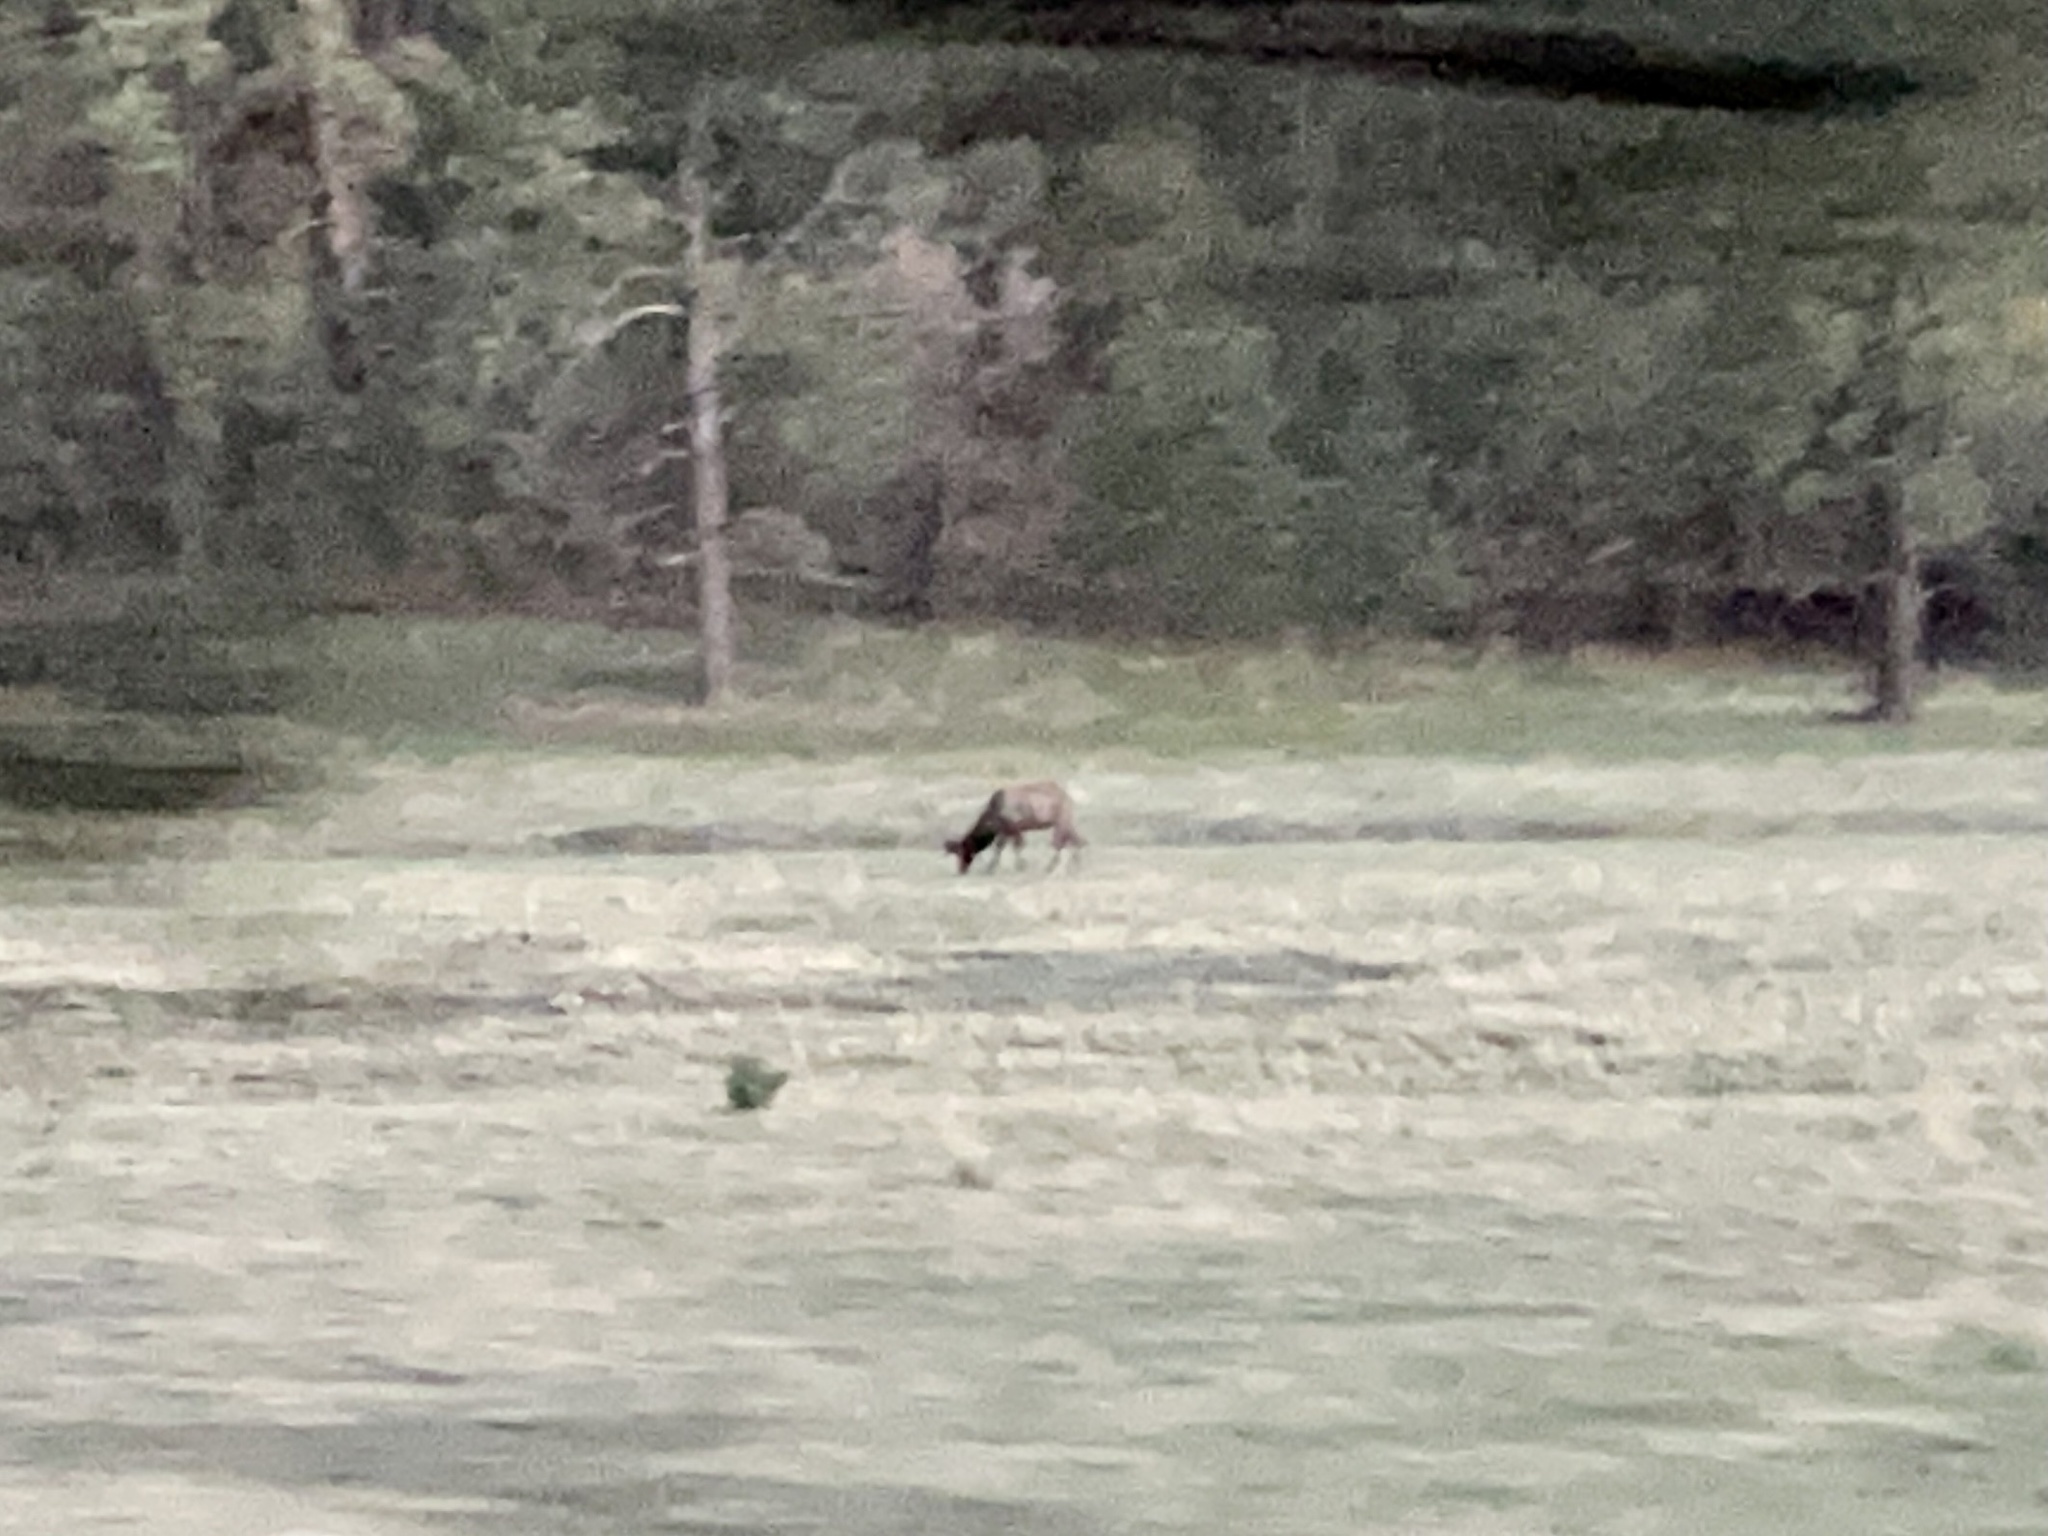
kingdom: Animalia
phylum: Chordata
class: Mammalia
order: Artiodactyla
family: Cervidae
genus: Cervus
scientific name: Cervus elaphus
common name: Red deer
